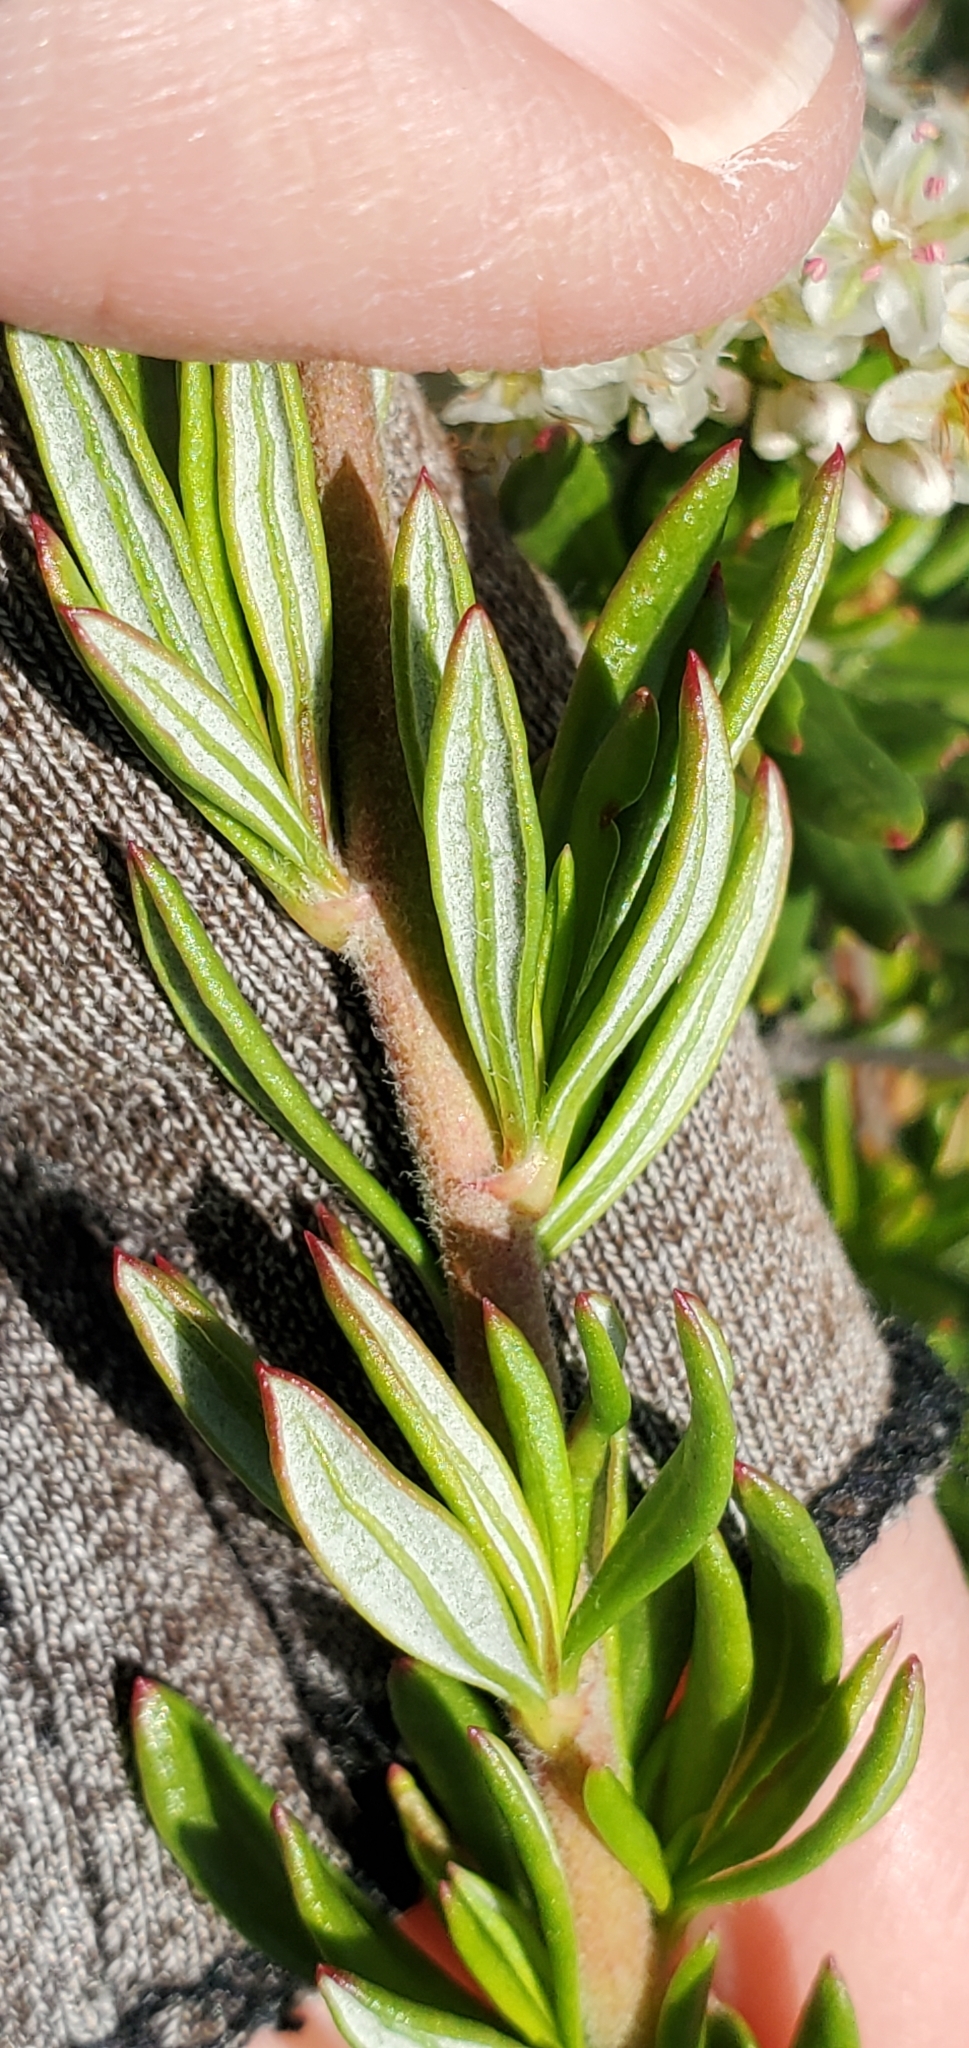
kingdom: Plantae
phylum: Tracheophyta
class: Magnoliopsida
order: Caryophyllales
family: Polygonaceae
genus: Eriogonum
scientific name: Eriogonum fasciculatum
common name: California wild buckwheat
